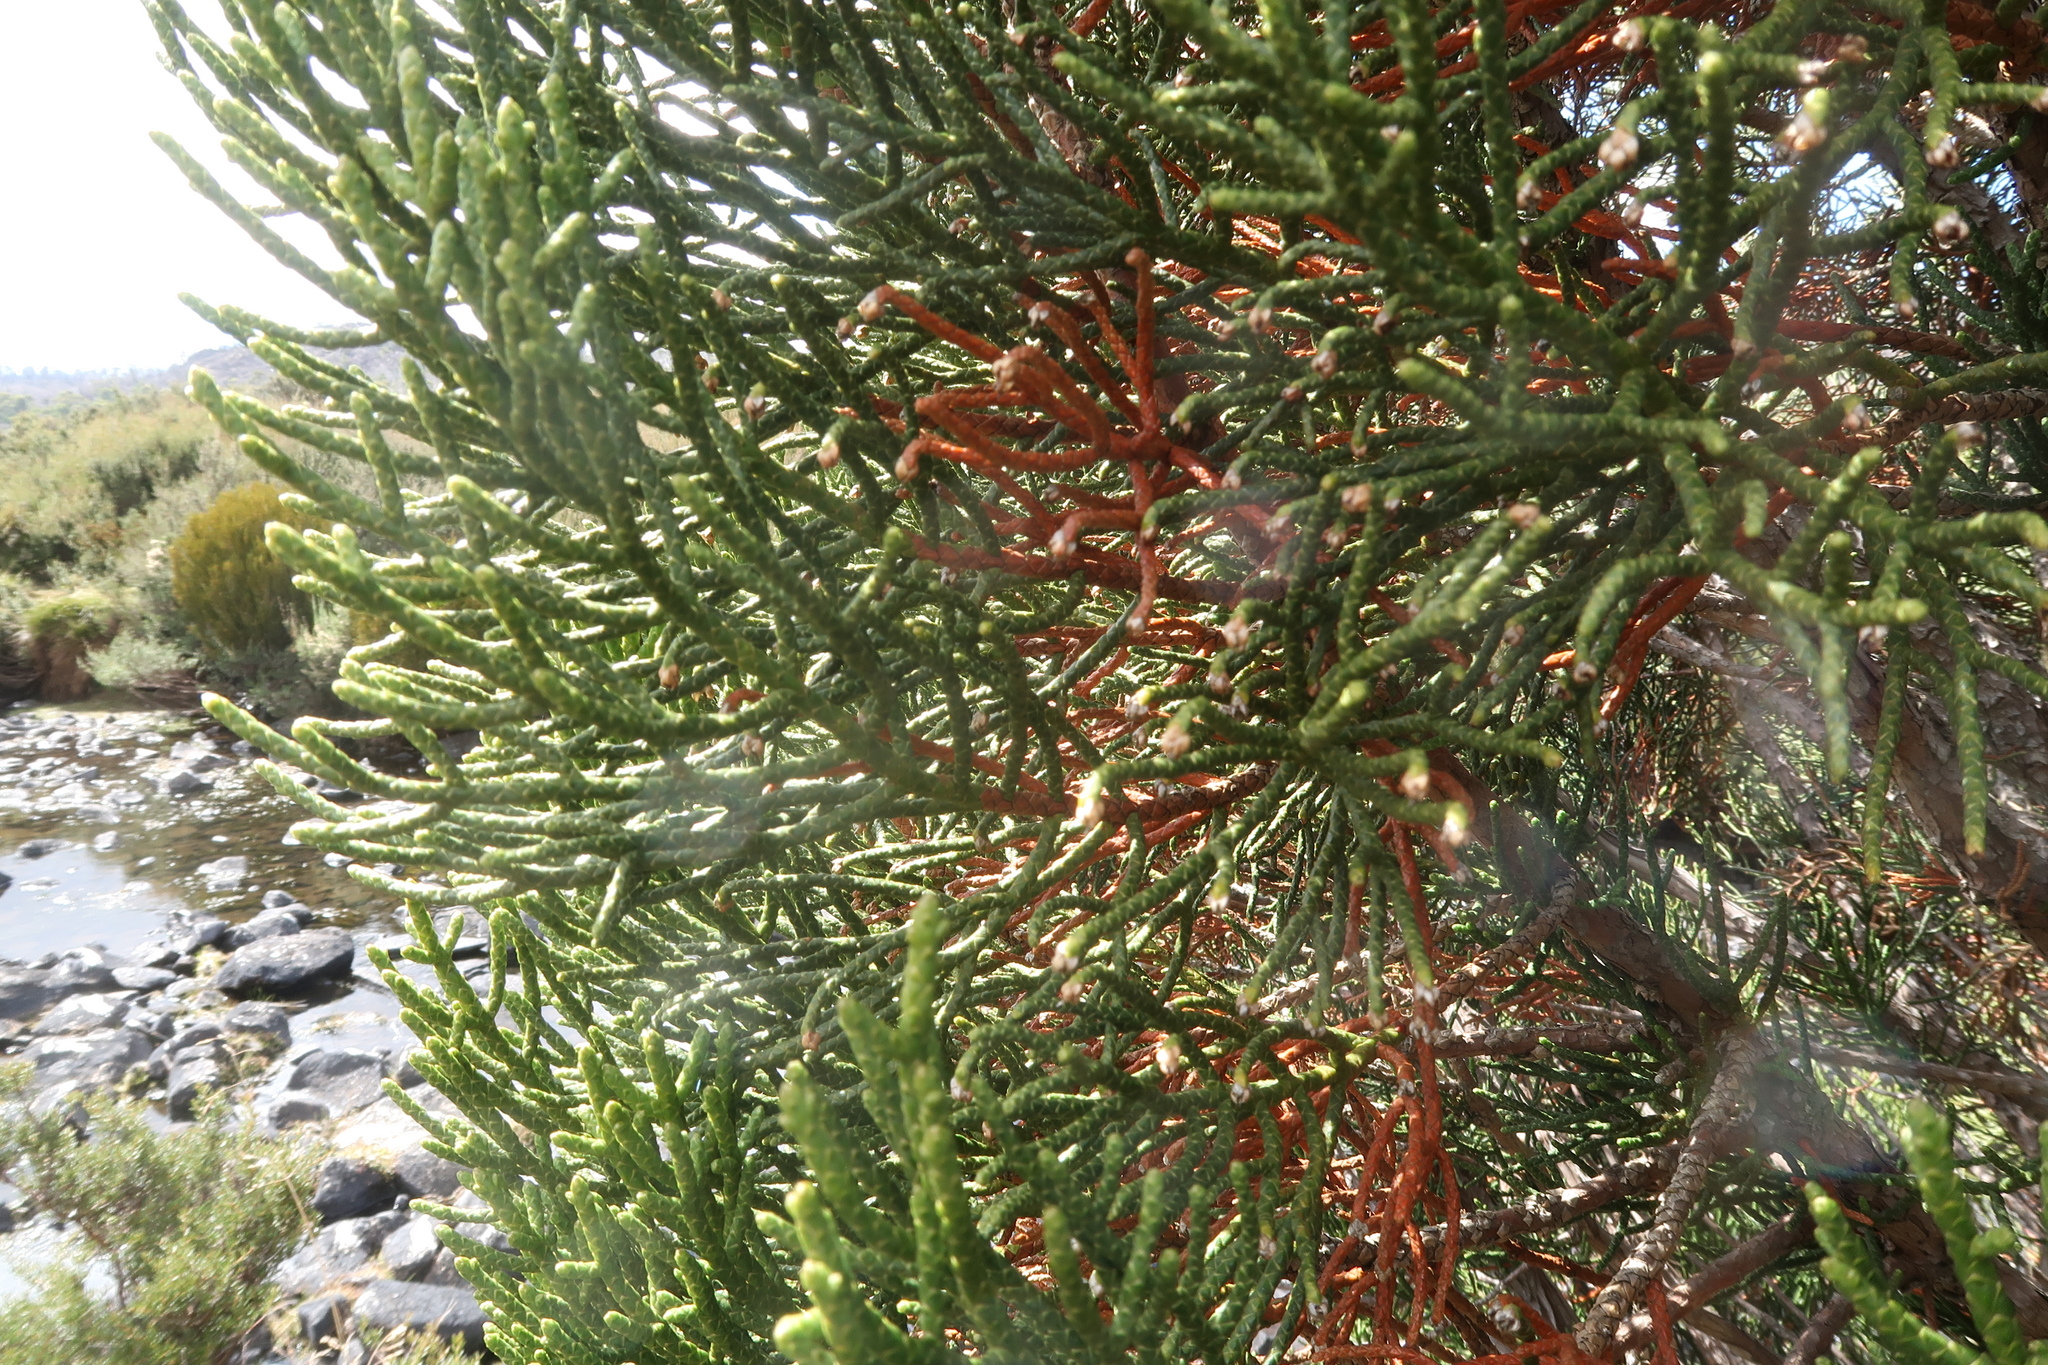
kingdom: Plantae
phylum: Tracheophyta
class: Pinopsida
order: Pinales
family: Cupressaceae
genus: Athrotaxis
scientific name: Athrotaxis cupressoides
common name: Tasmanian pencil pine
